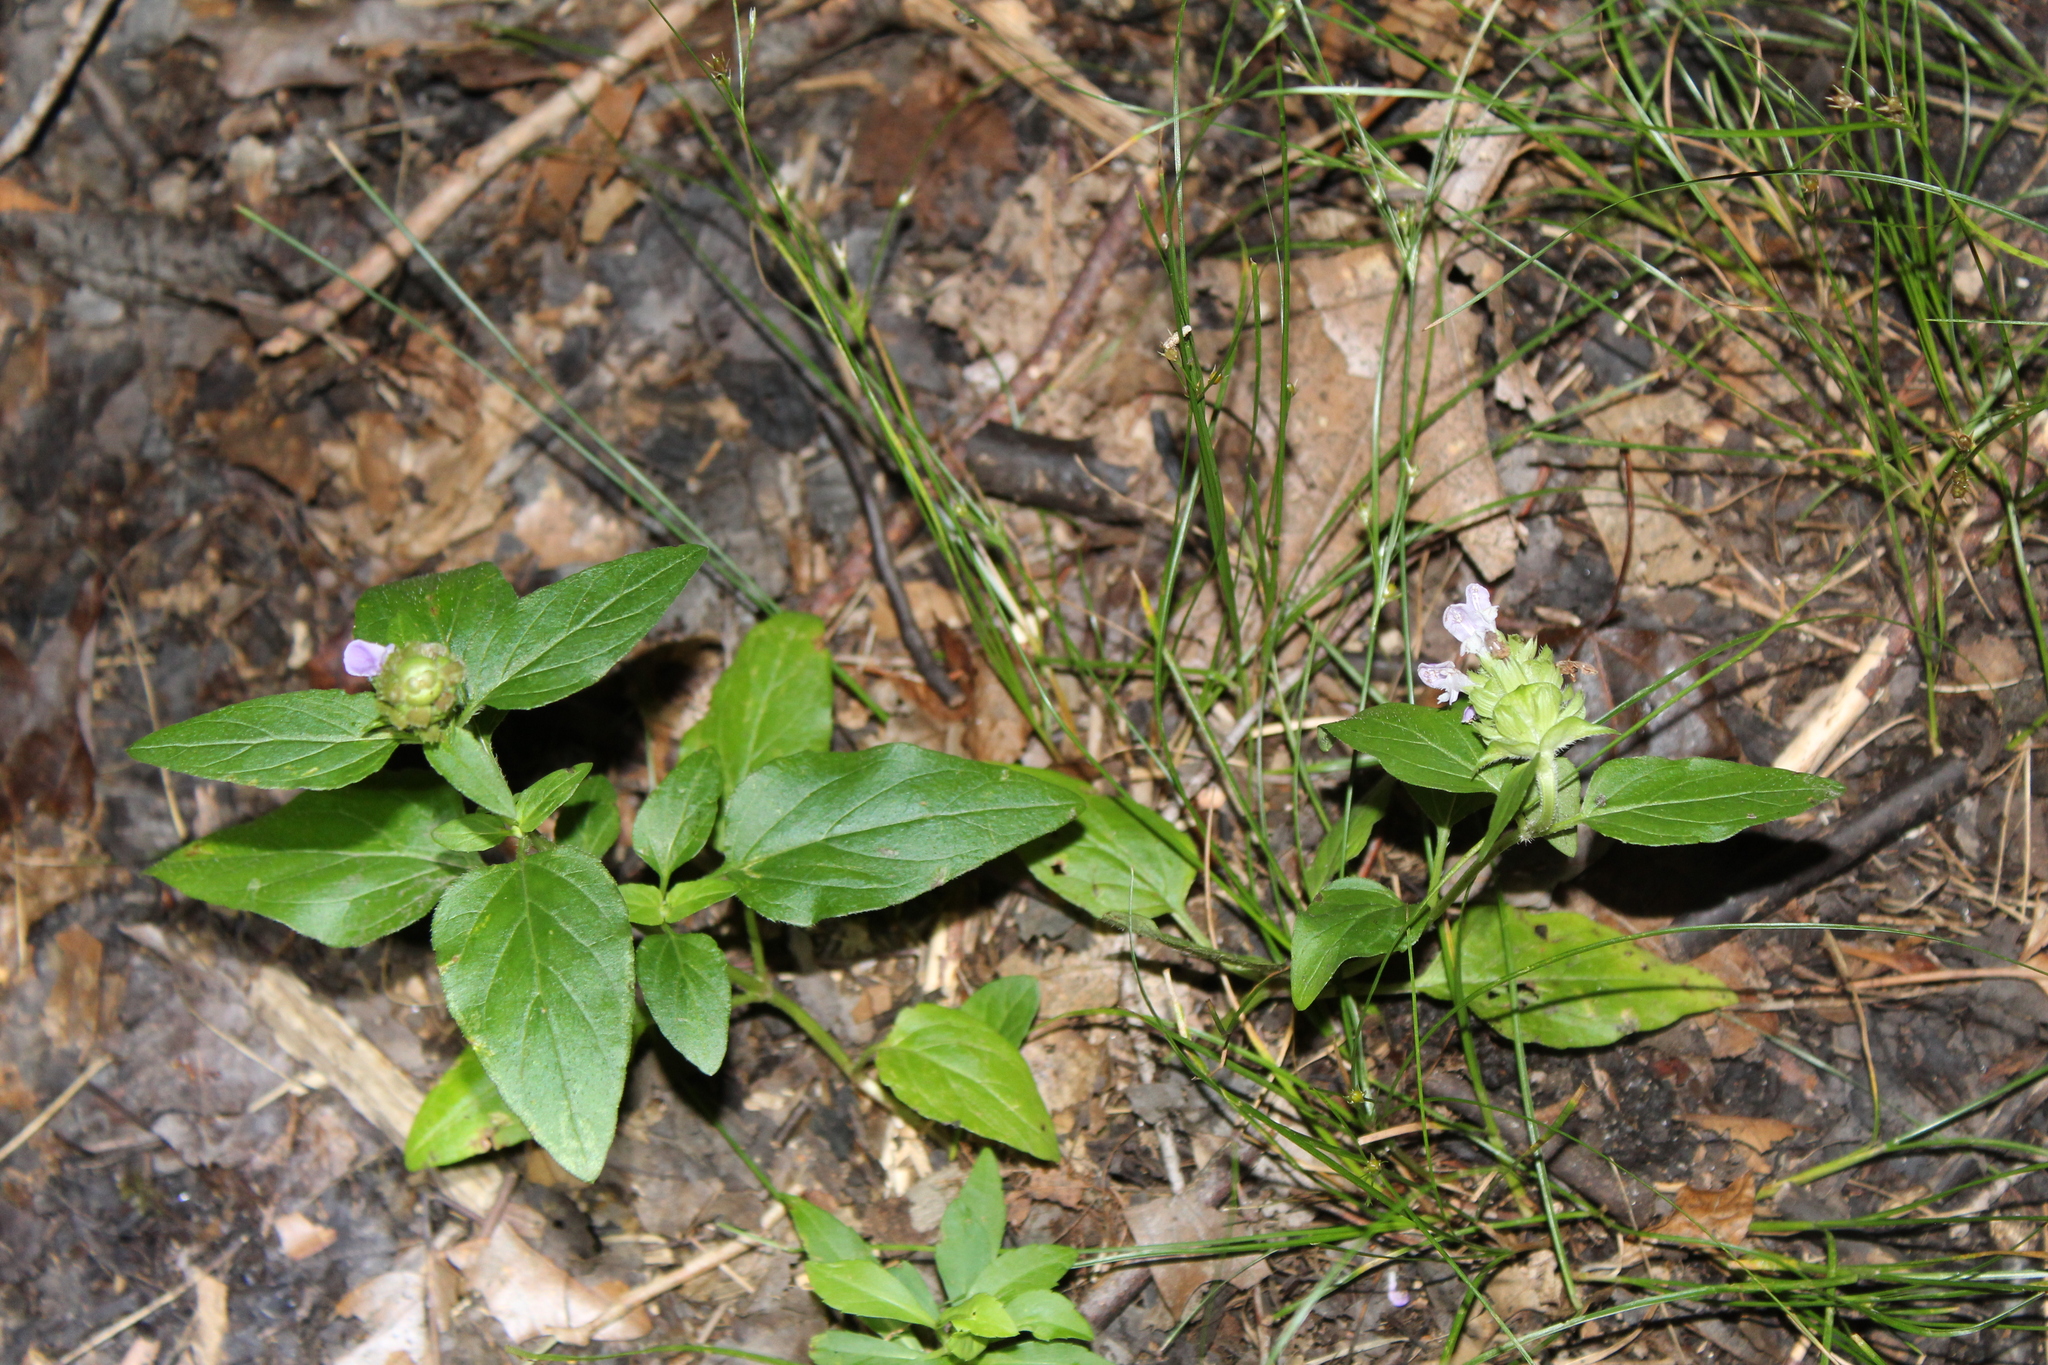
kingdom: Plantae
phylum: Tracheophyta
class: Magnoliopsida
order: Lamiales
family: Lamiaceae
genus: Prunella
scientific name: Prunella vulgaris
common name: Heal-all
